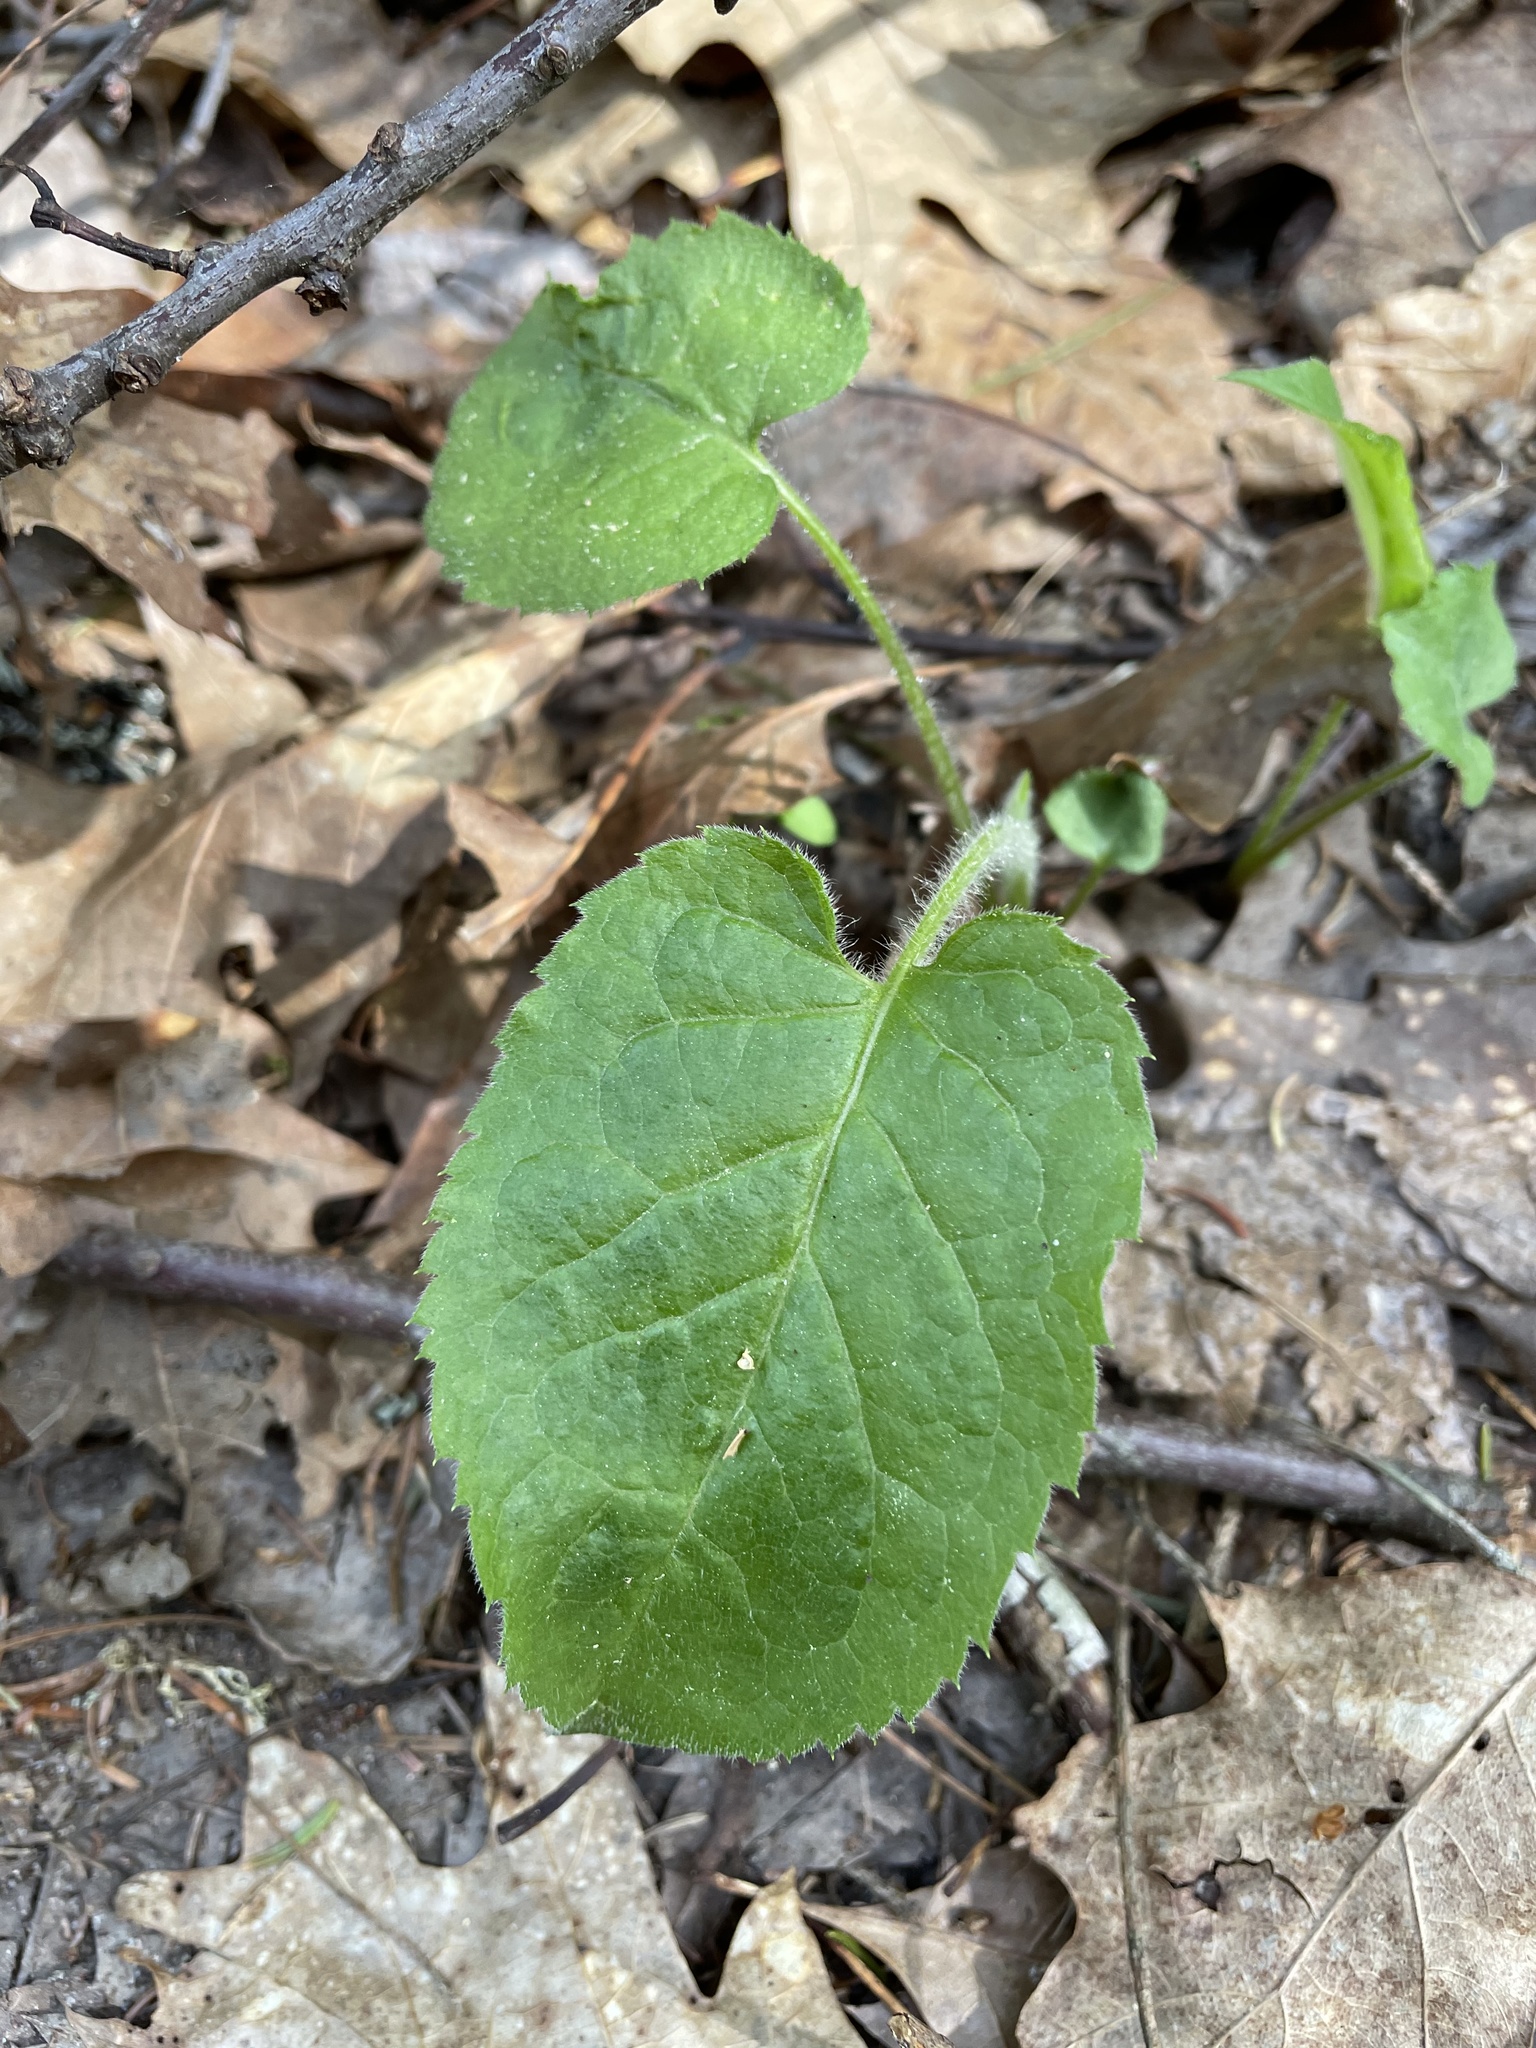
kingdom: Plantae
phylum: Tracheophyta
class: Magnoliopsida
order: Asterales
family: Asteraceae
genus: Eurybia
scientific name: Eurybia macrophylla
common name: Big-leaved aster
